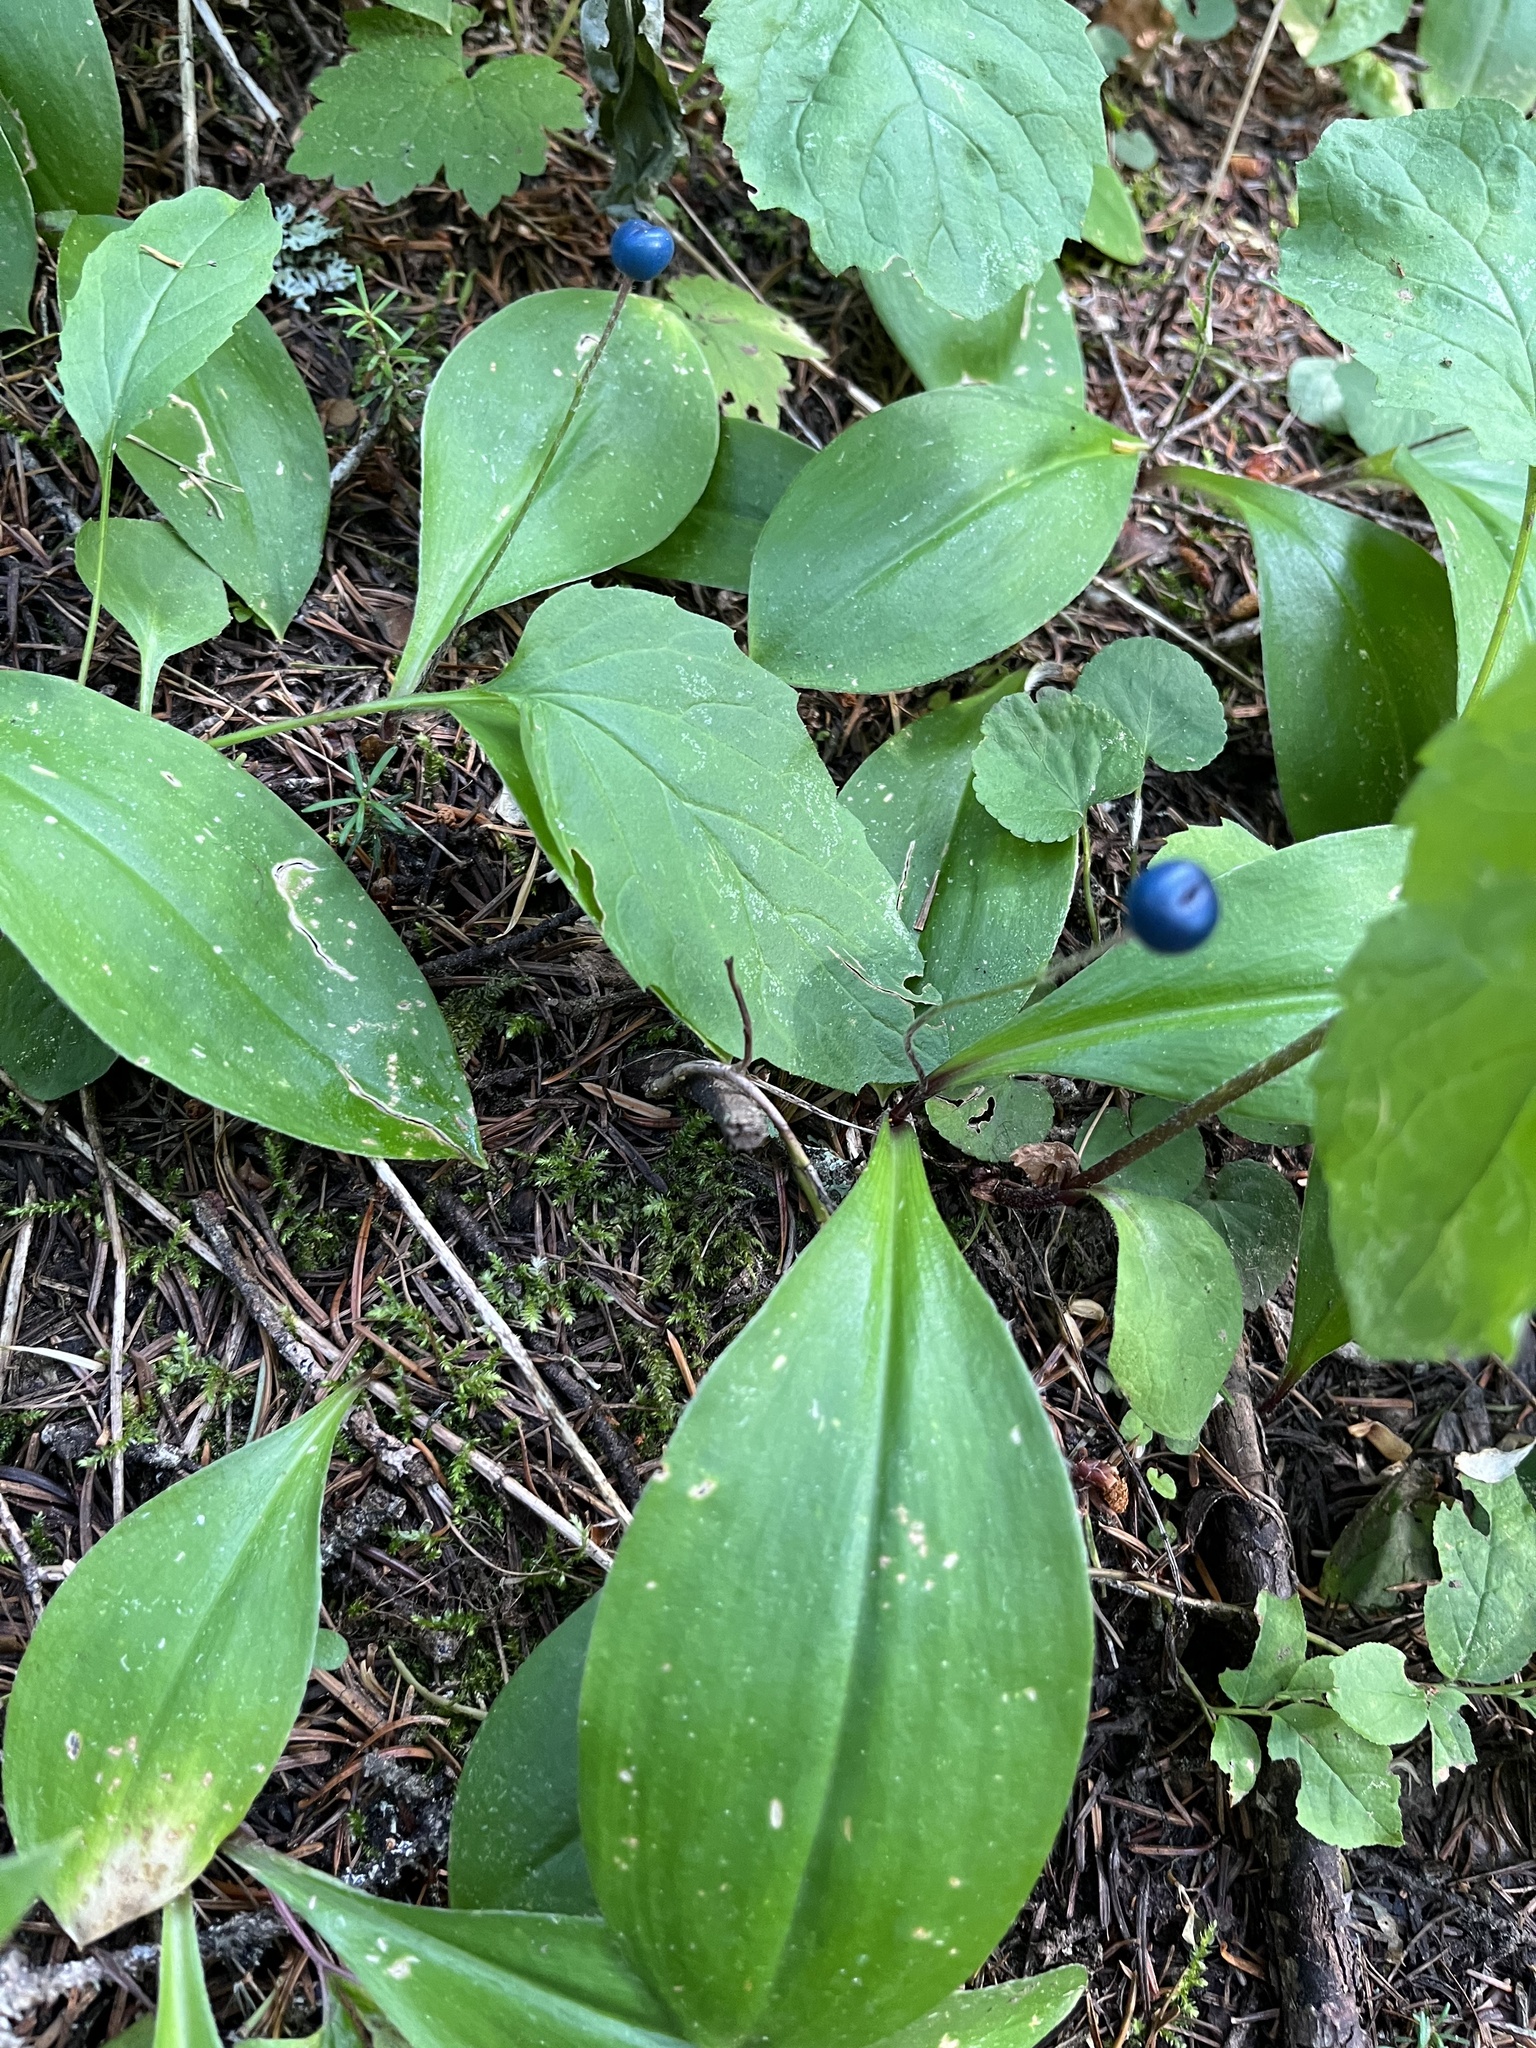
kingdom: Plantae
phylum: Tracheophyta
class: Liliopsida
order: Liliales
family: Liliaceae
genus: Clintonia
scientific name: Clintonia uniflora
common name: Queen's cup
